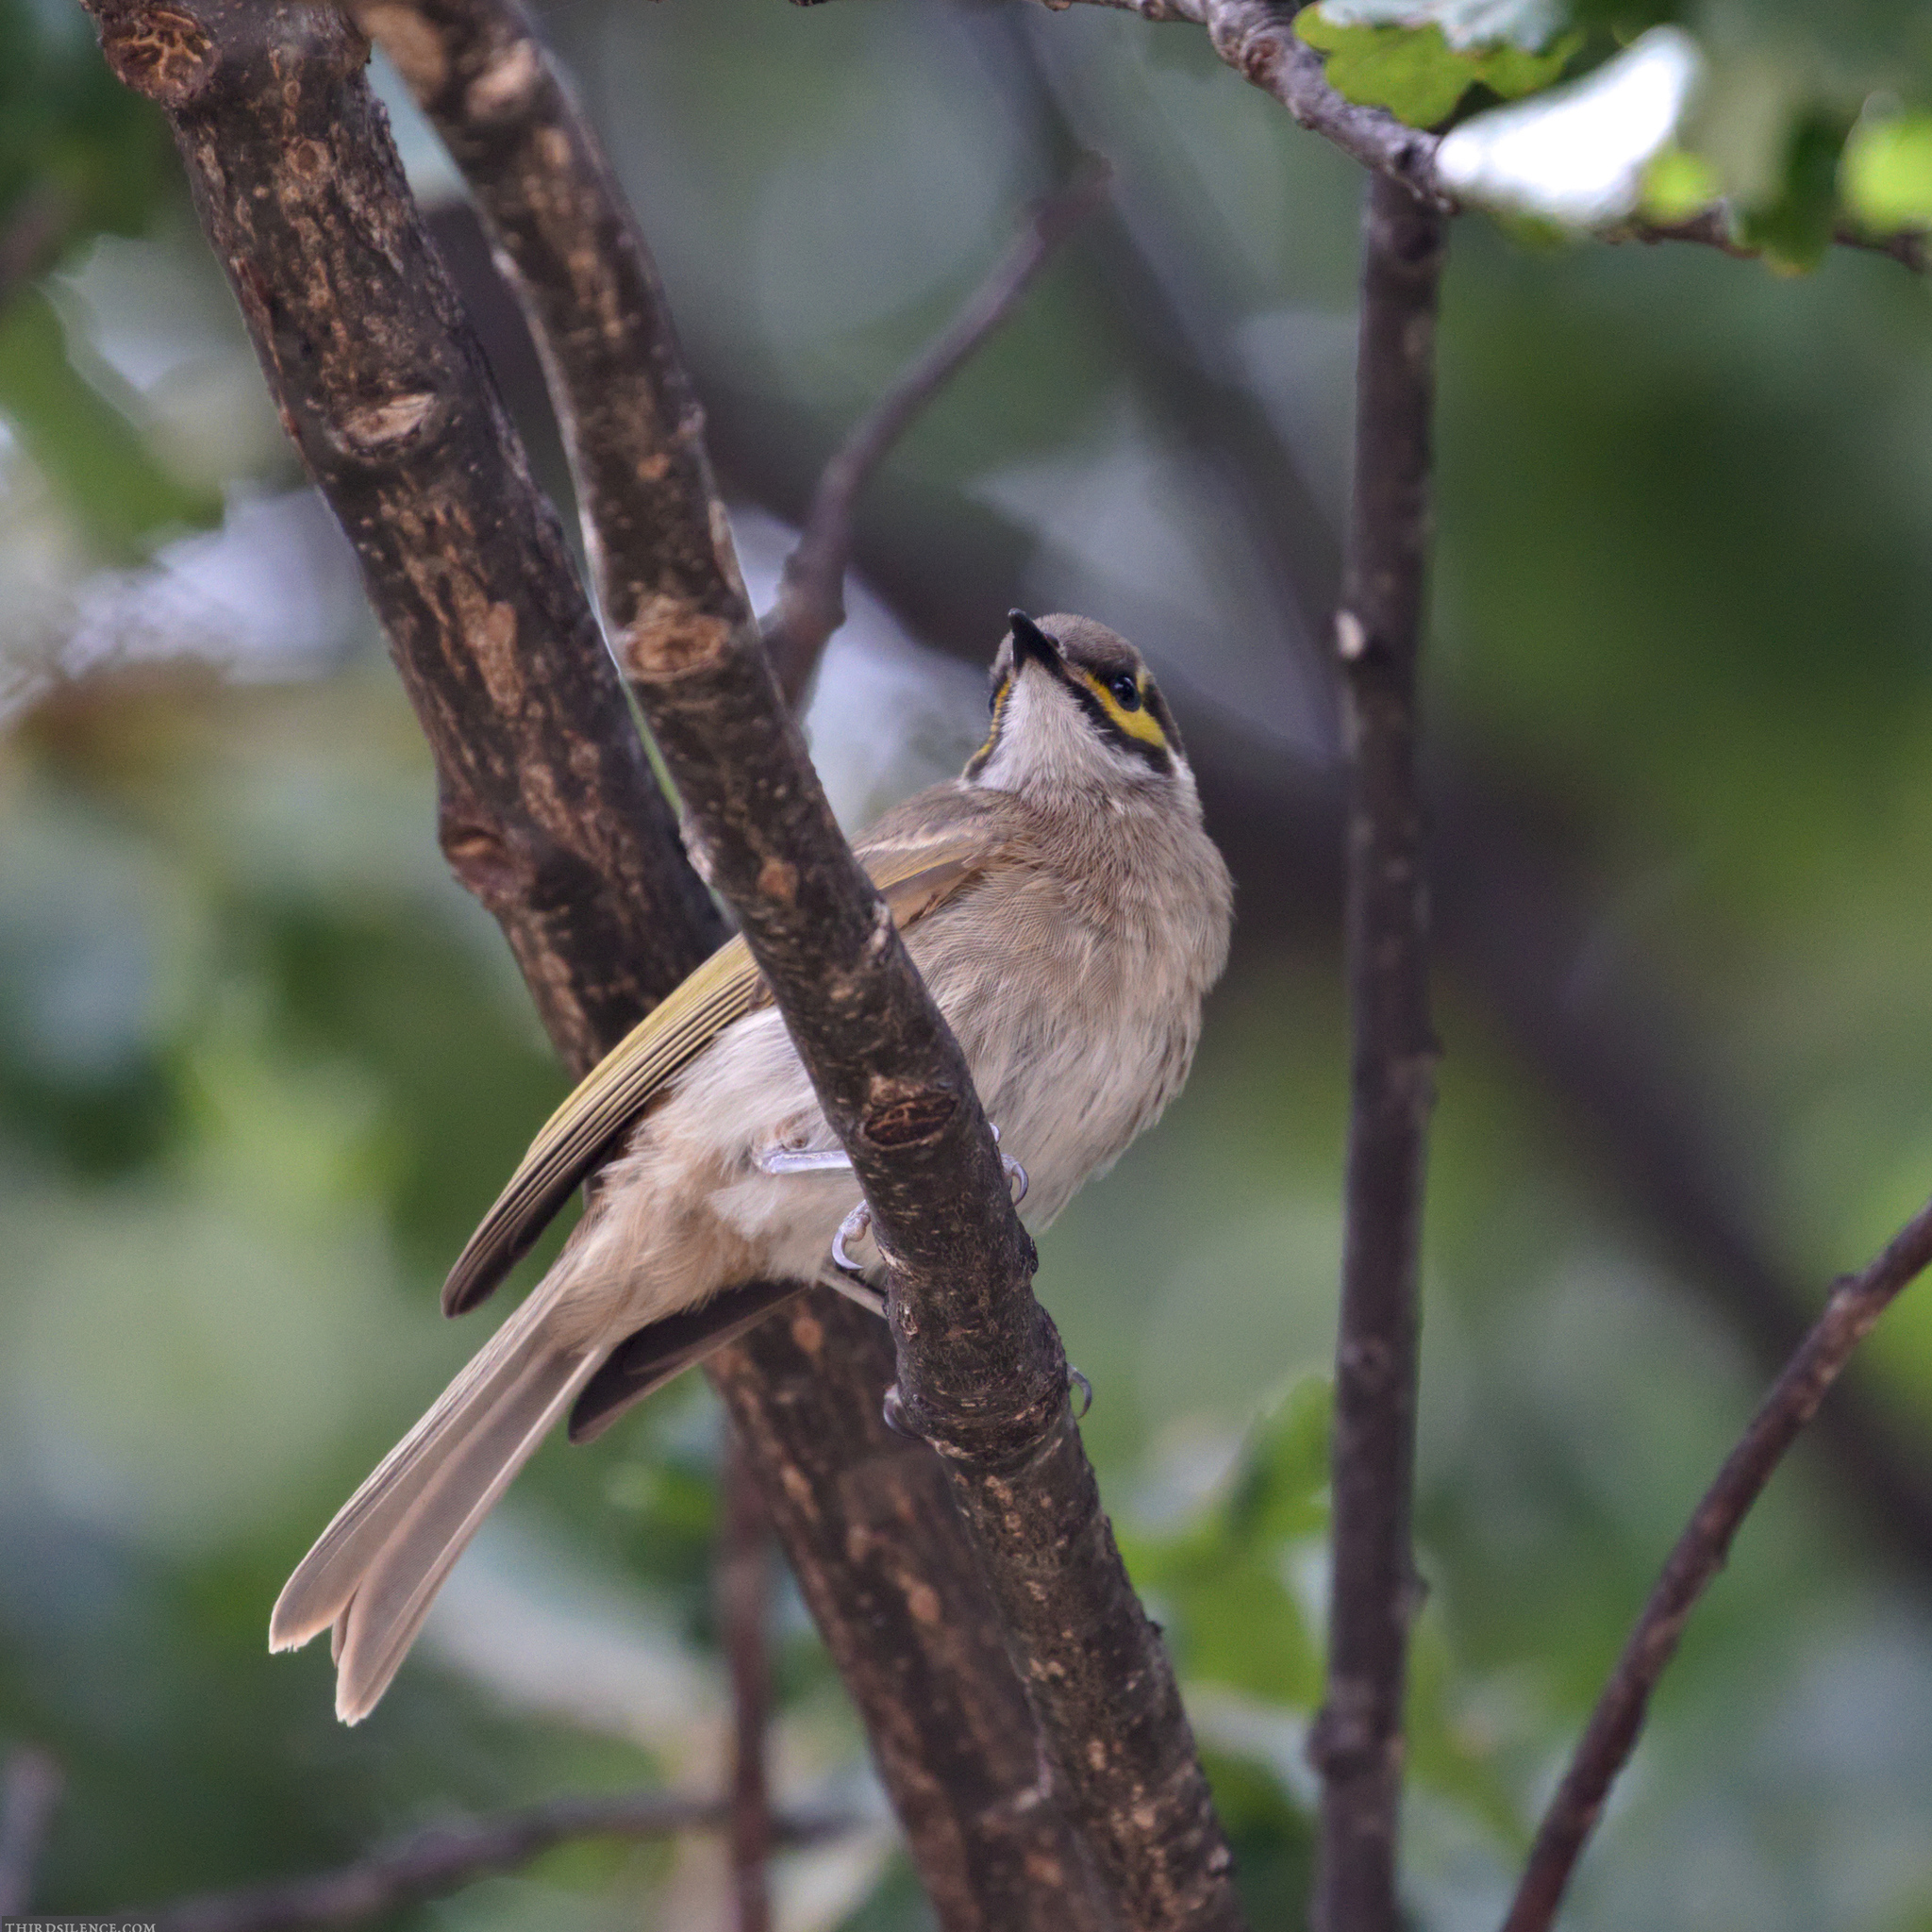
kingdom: Animalia
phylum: Chordata
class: Aves
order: Passeriformes
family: Meliphagidae
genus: Caligavis
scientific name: Caligavis chrysops
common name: Yellow-faced honeyeater
